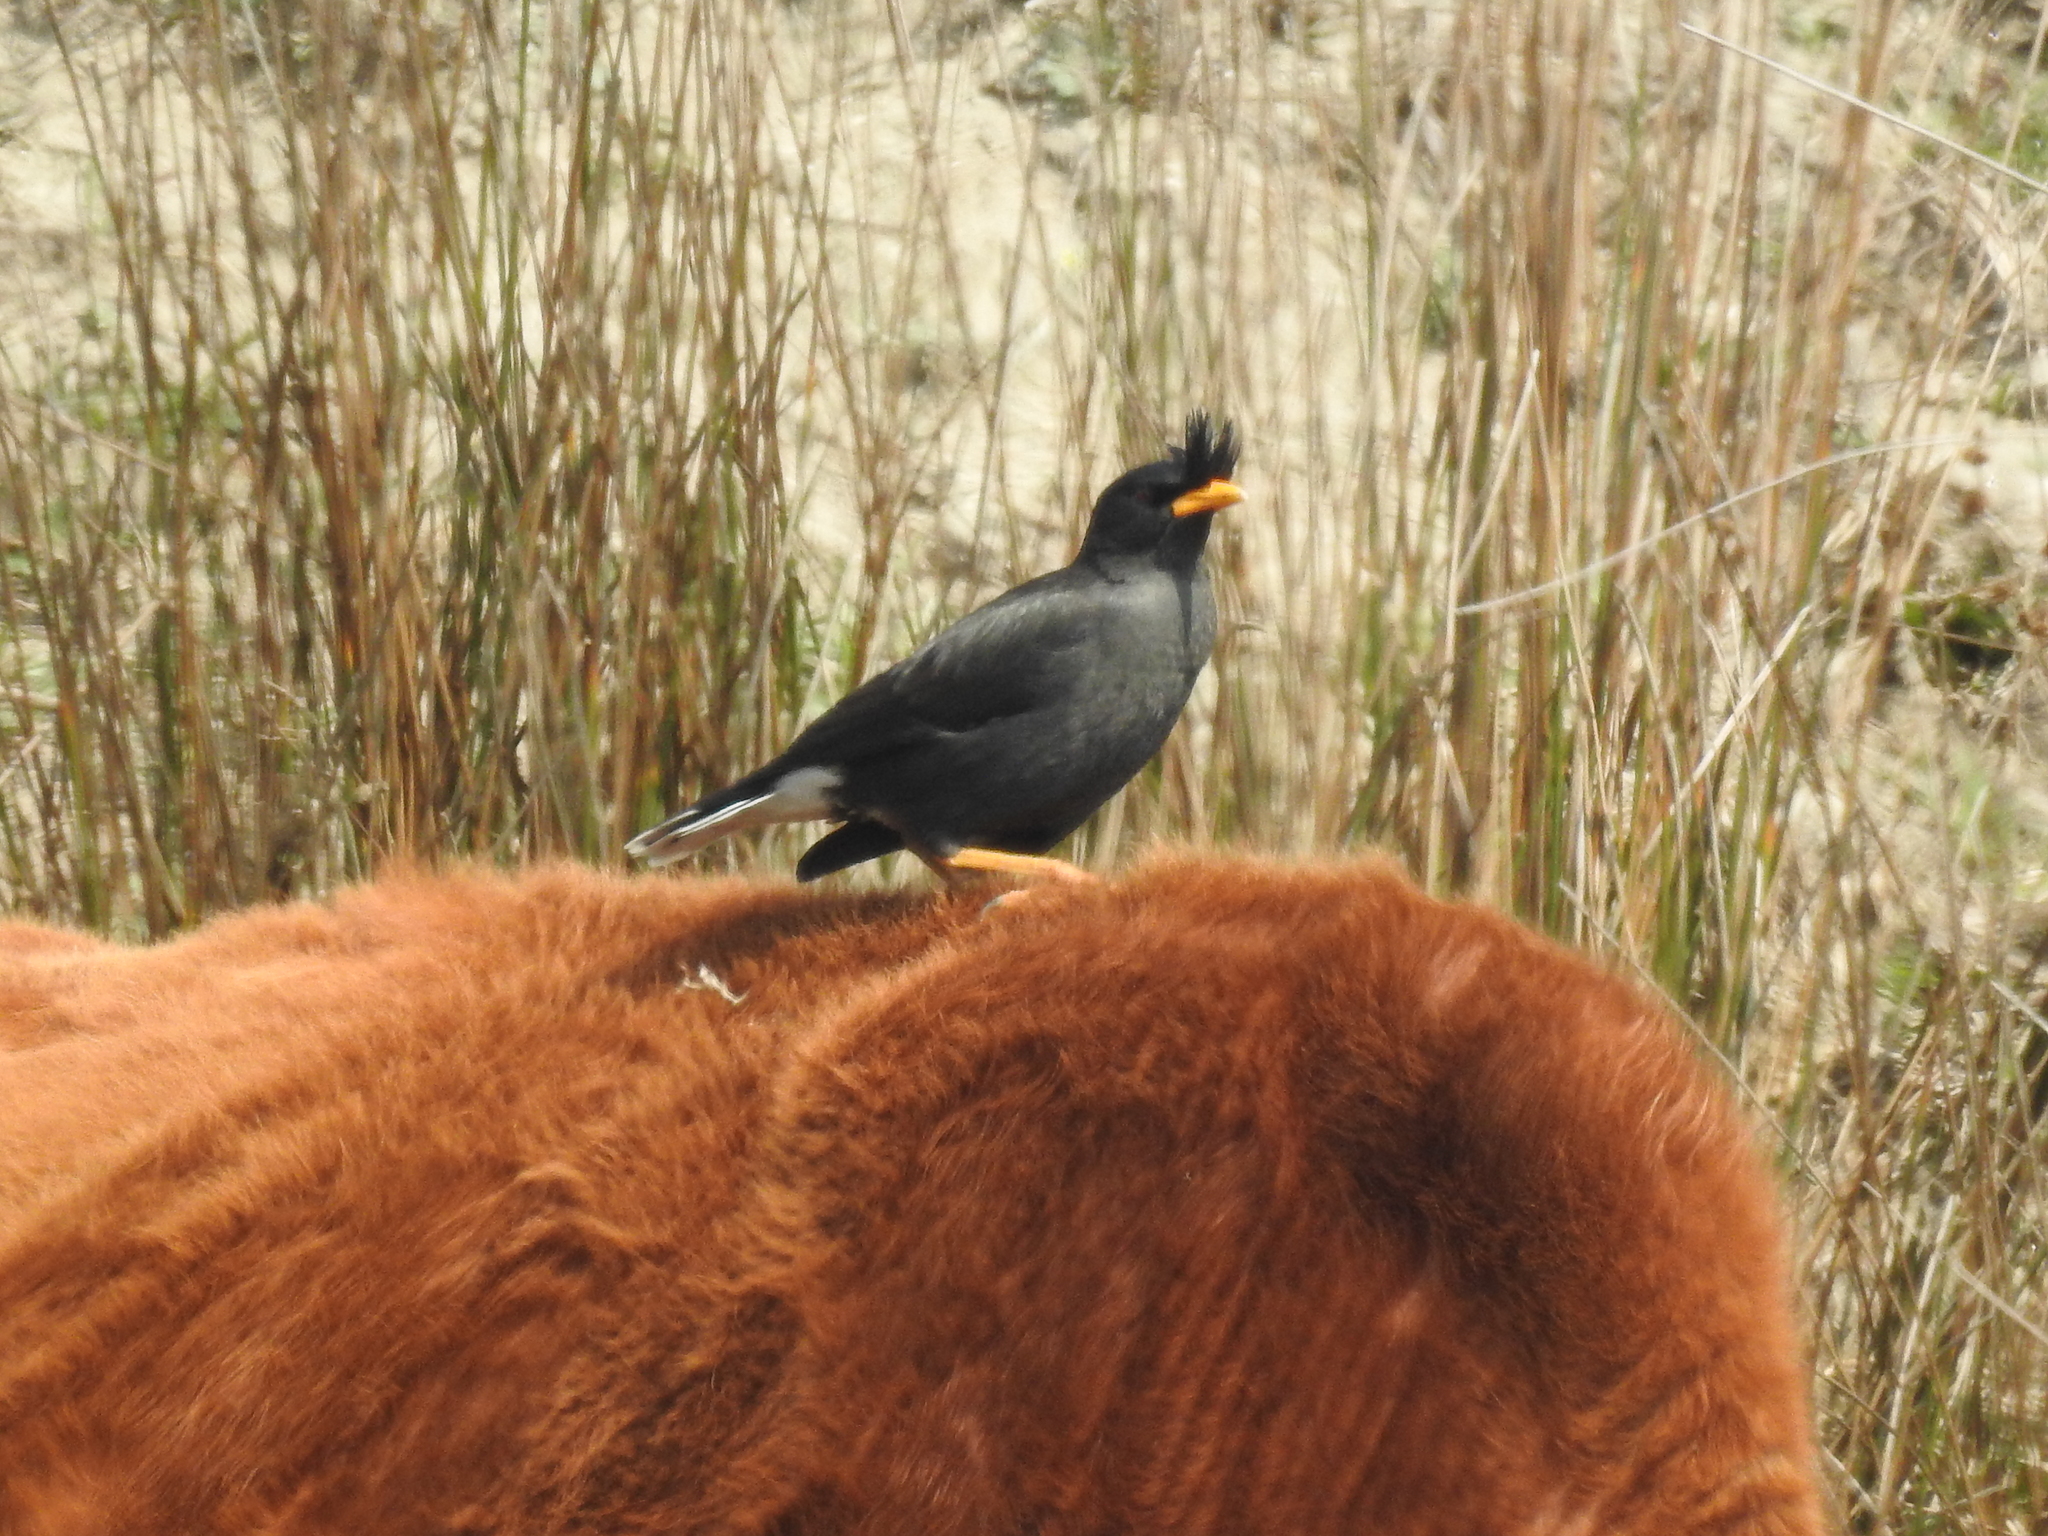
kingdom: Animalia
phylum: Chordata
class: Aves
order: Passeriformes
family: Sturnidae
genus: Acridotheres
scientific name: Acridotheres grandis
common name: Great myna
